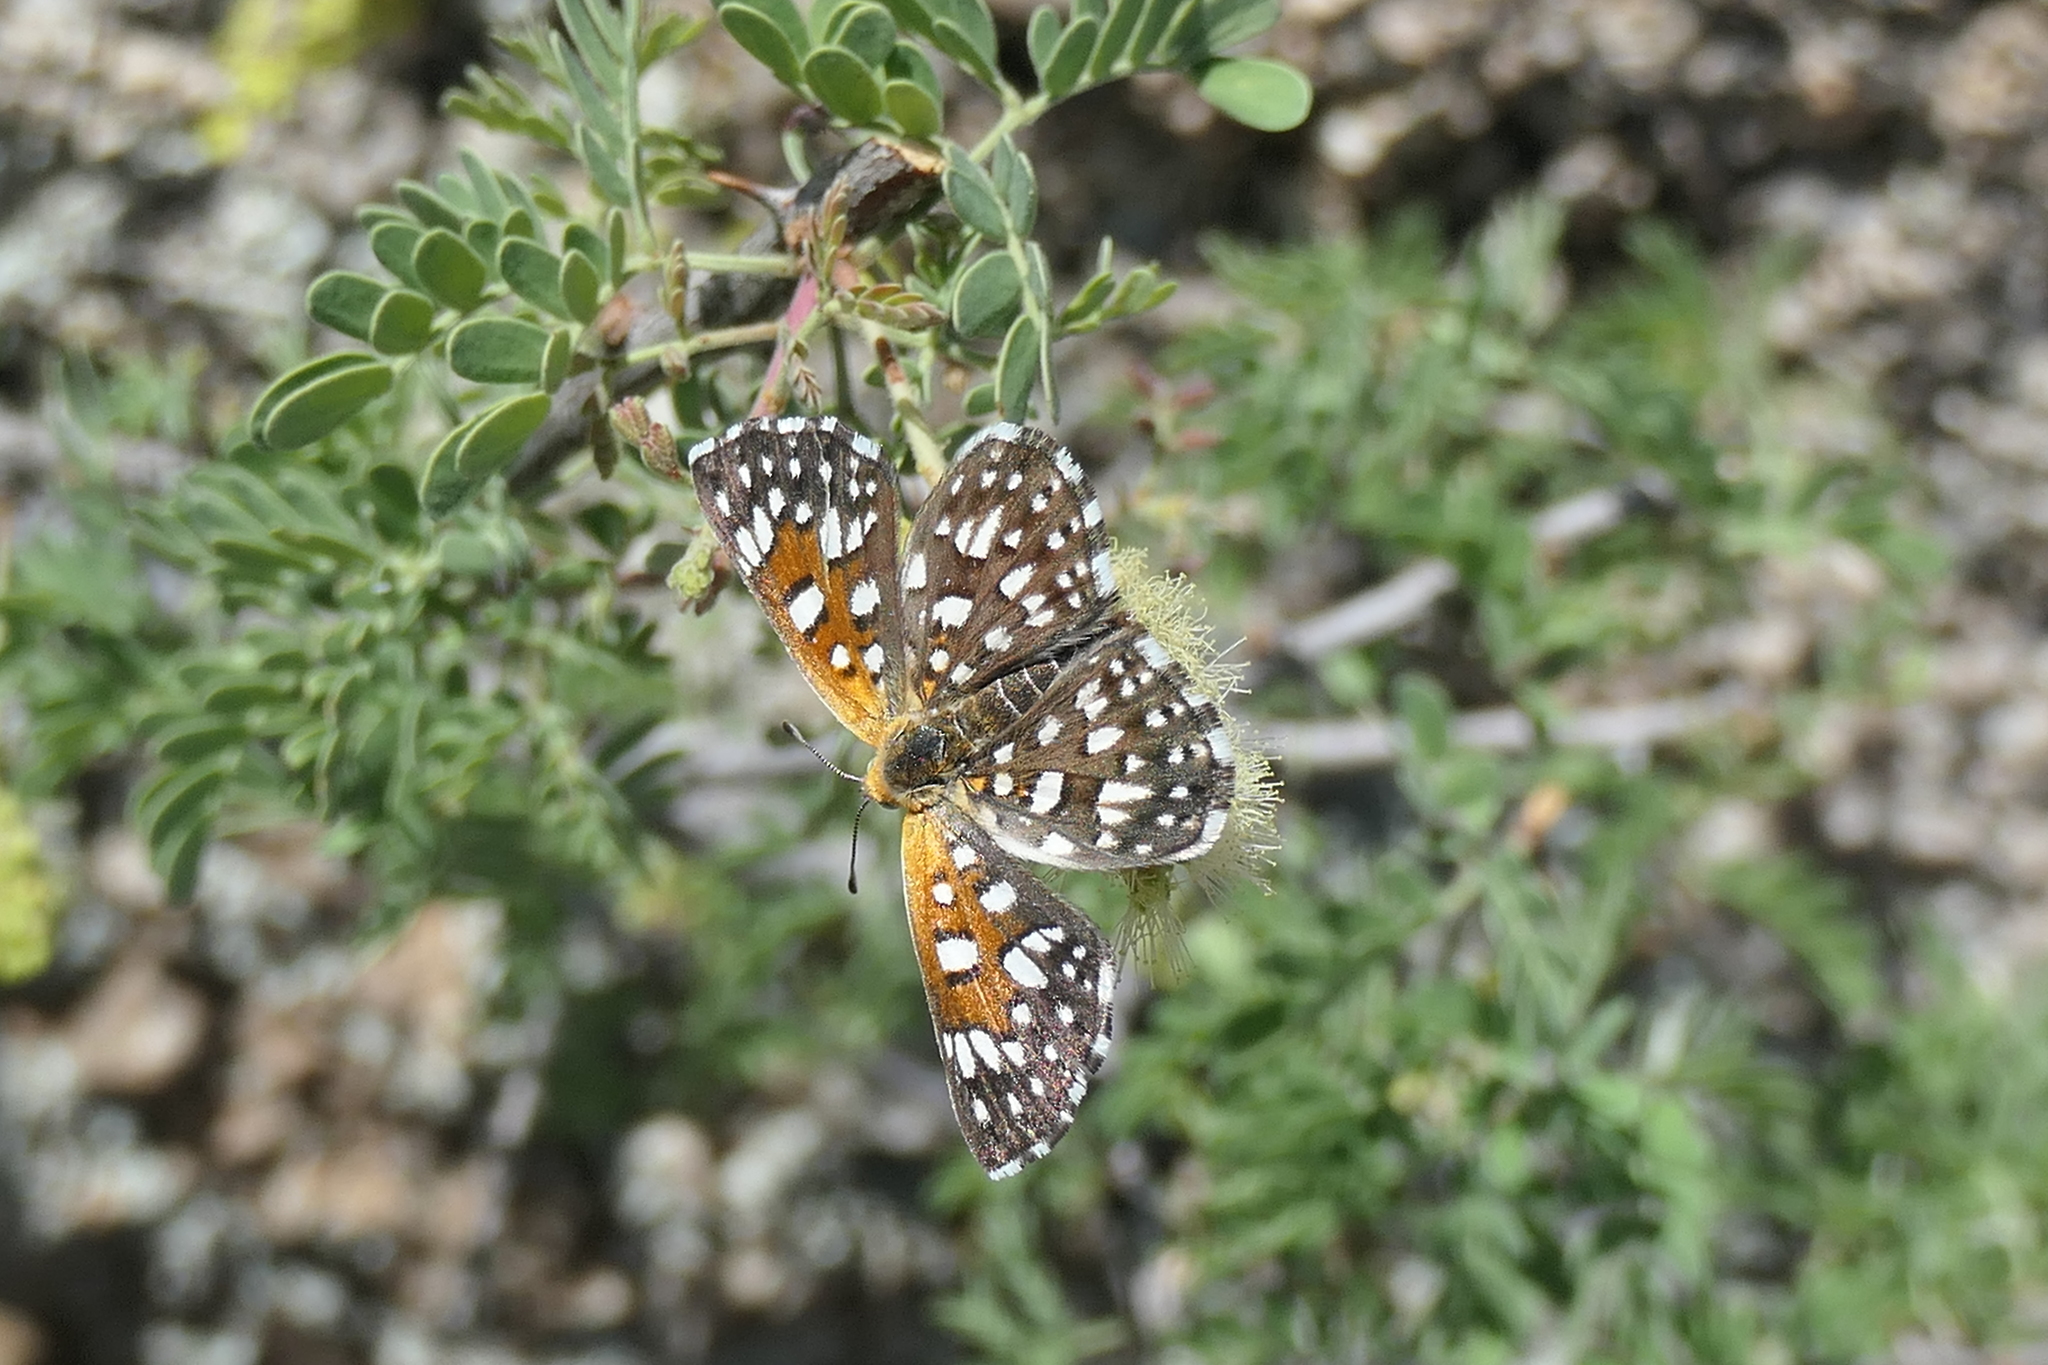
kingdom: Animalia
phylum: Arthropoda
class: Insecta
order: Lepidoptera
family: Riodinidae
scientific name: Riodinidae
